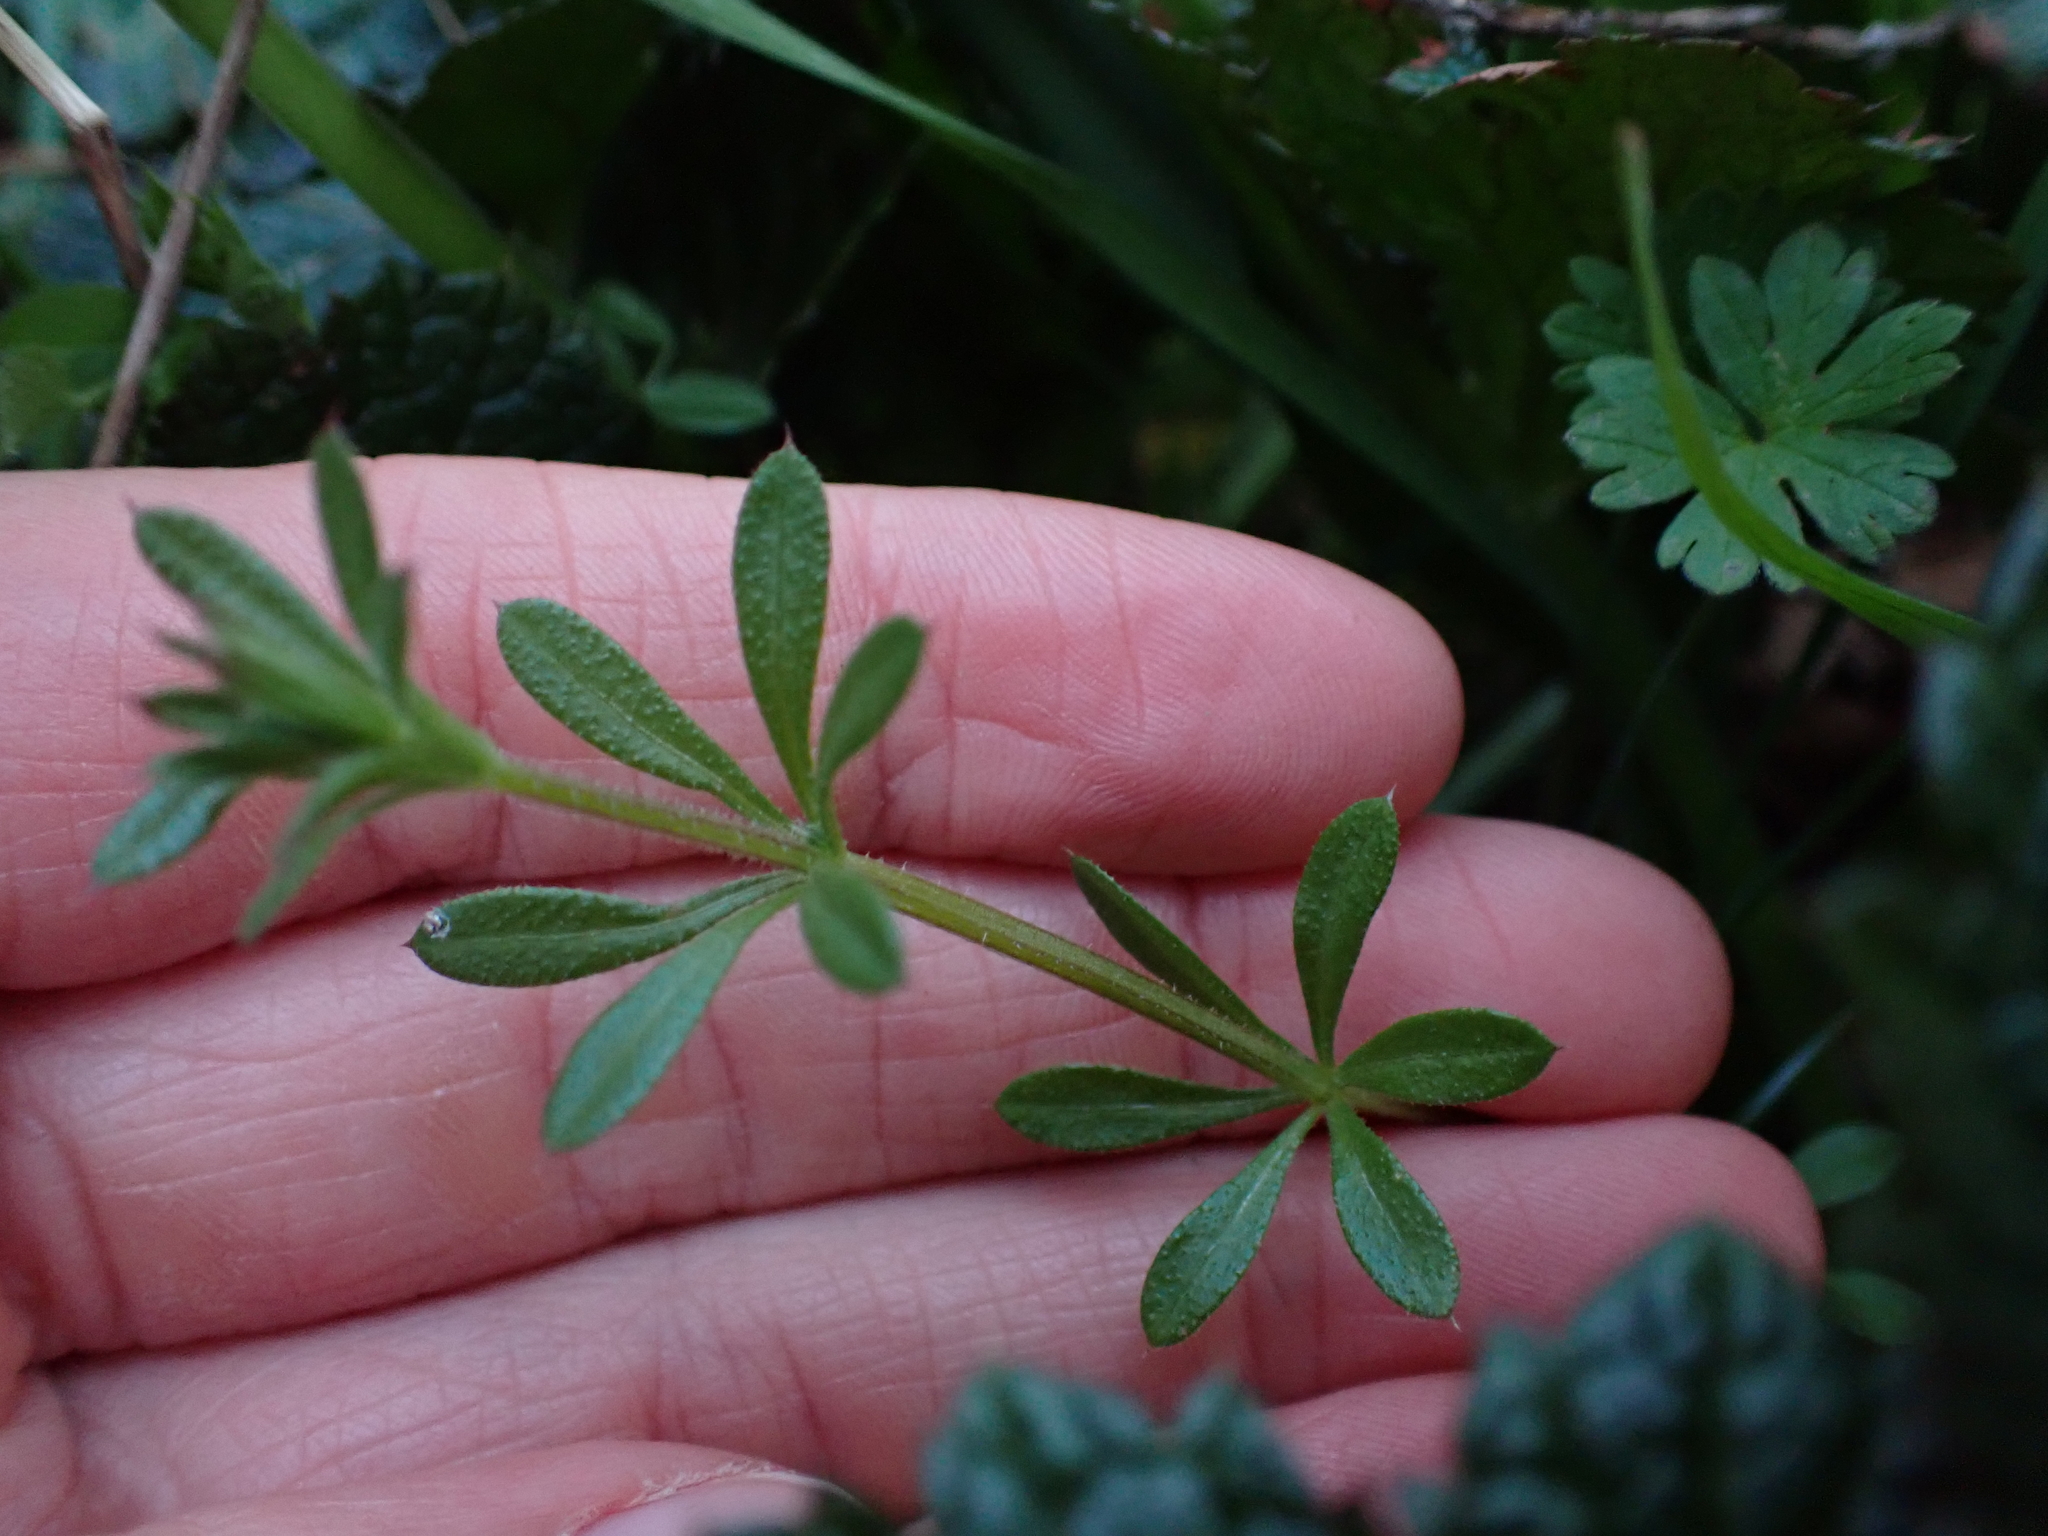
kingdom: Plantae
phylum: Tracheophyta
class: Magnoliopsida
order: Gentianales
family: Rubiaceae
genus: Galium
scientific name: Galium aparine
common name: Cleavers
